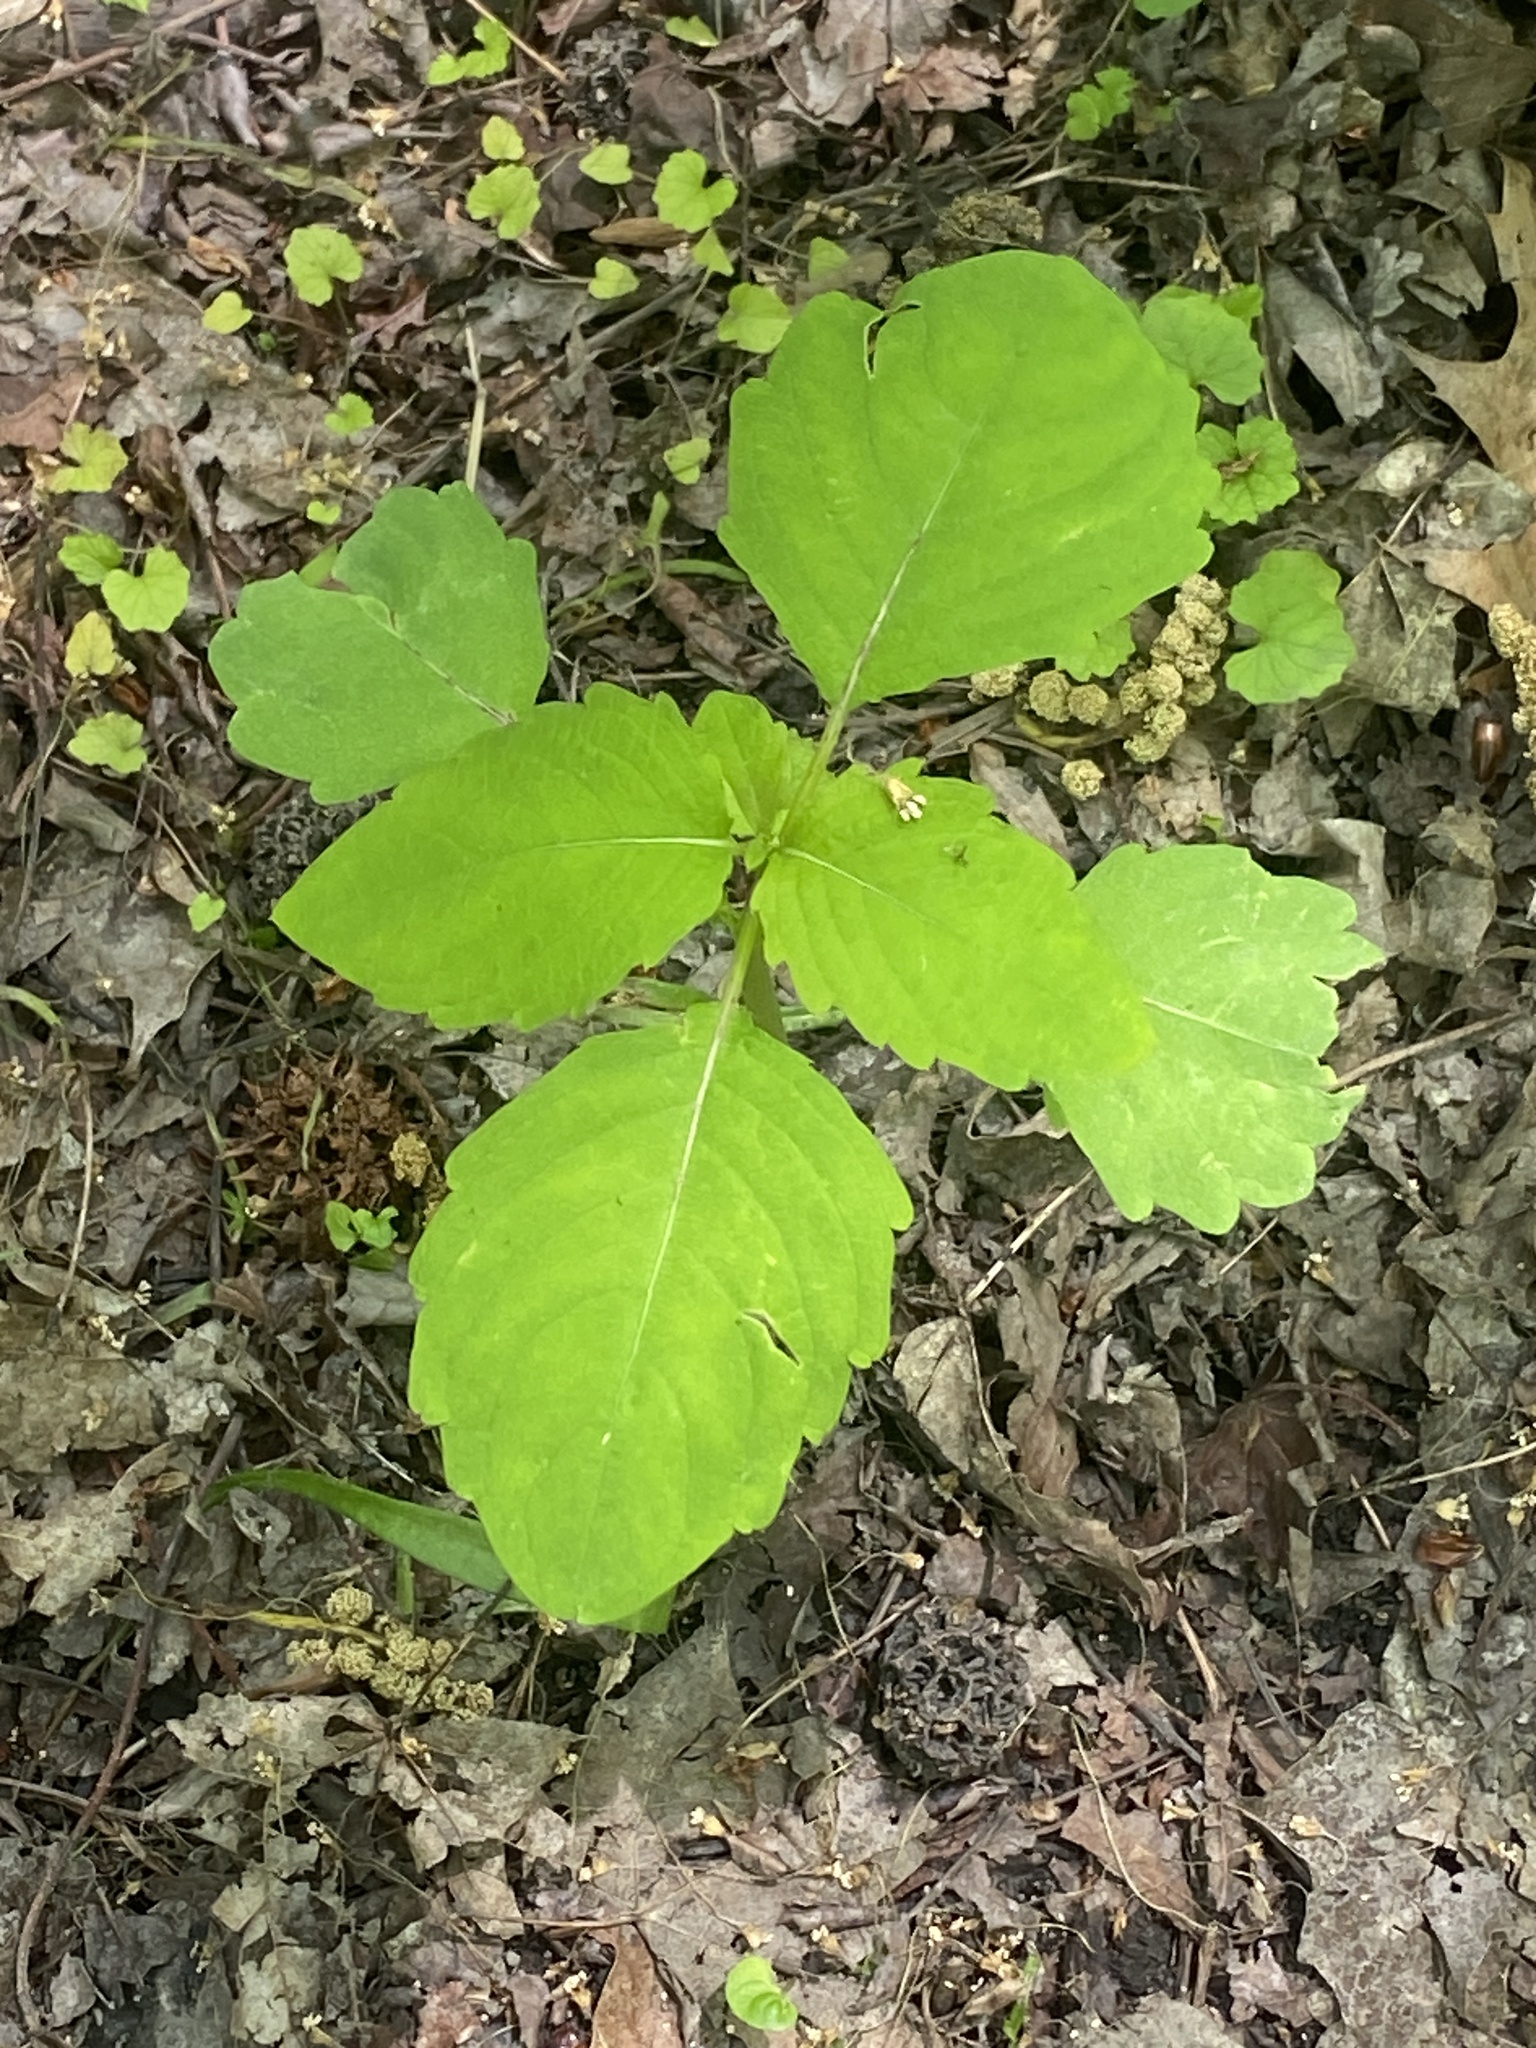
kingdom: Plantae
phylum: Tracheophyta
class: Magnoliopsida
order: Ericales
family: Balsaminaceae
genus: Impatiens
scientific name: Impatiens
